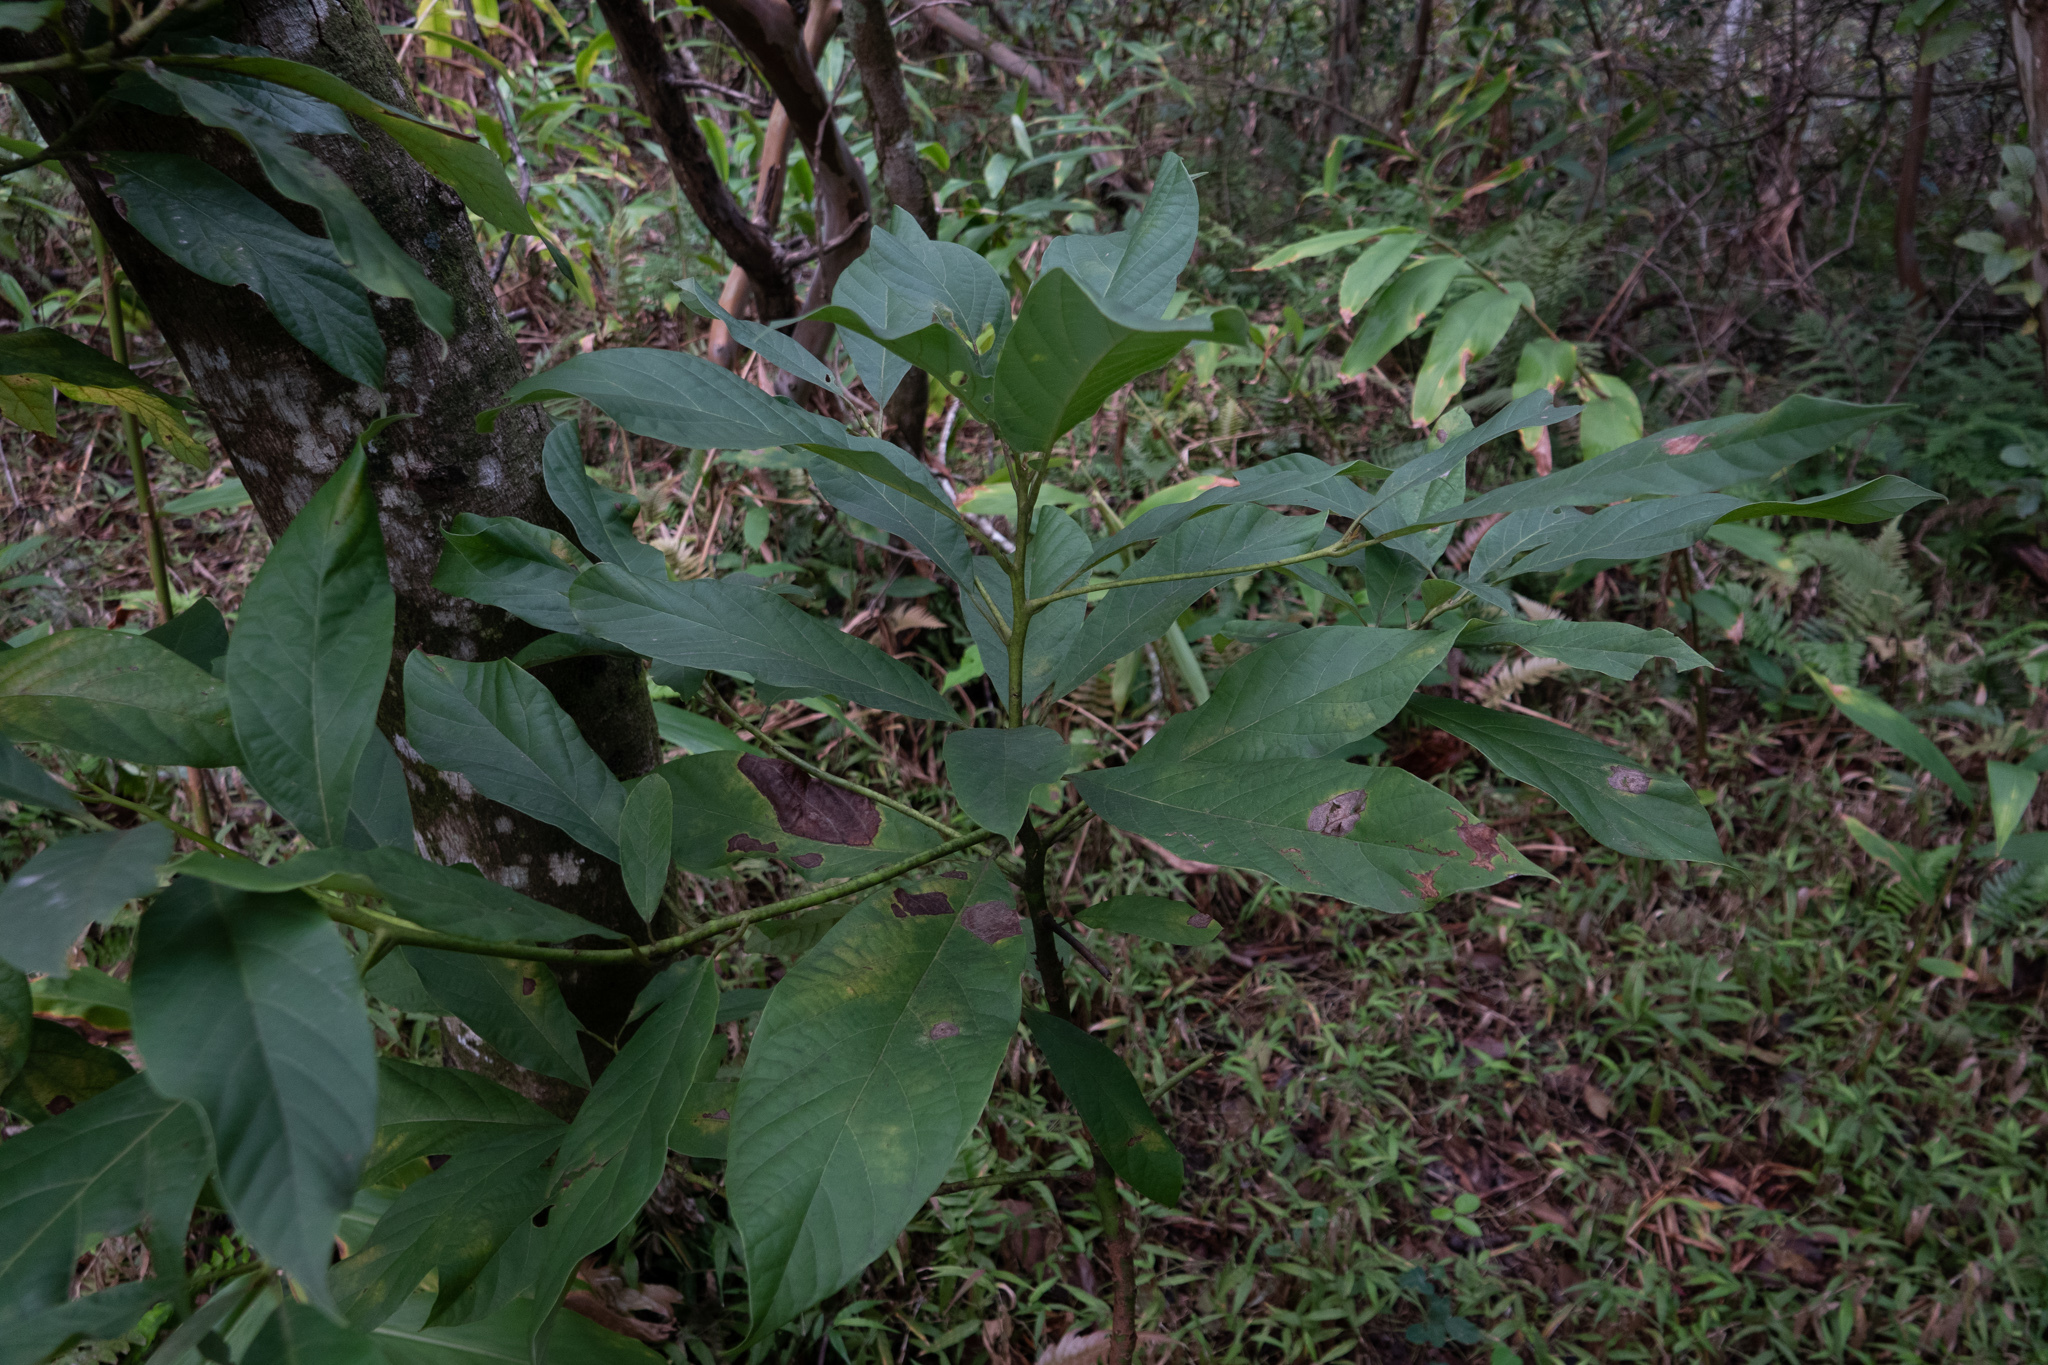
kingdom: Plantae
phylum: Tracheophyta
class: Magnoliopsida
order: Laurales
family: Lauraceae
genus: Persea
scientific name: Persea americana
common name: Avocado
